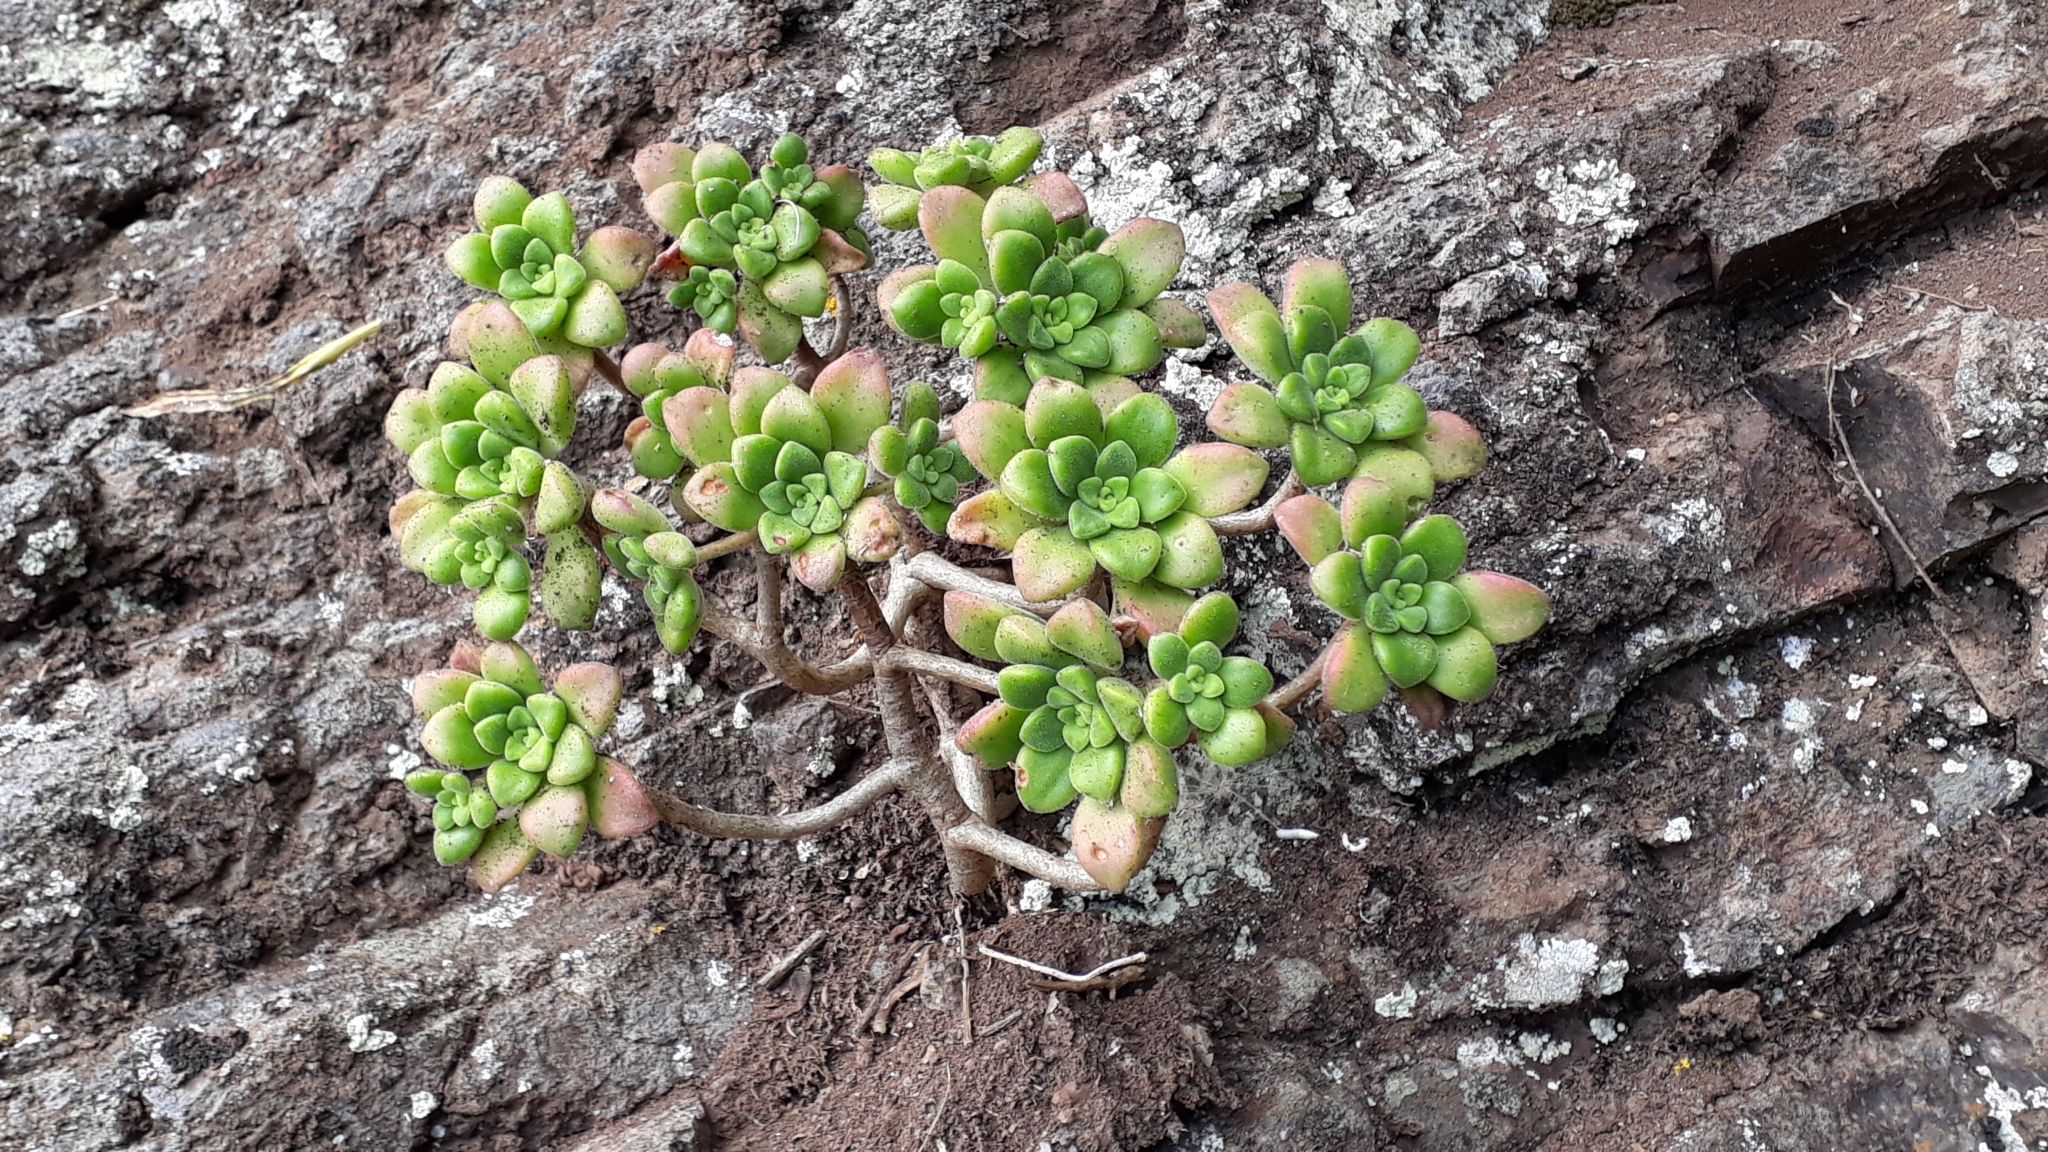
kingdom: Plantae
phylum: Tracheophyta
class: Magnoliopsida
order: Saxifragales
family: Crassulaceae
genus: Aeonium
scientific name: Aeonium lindleyi
